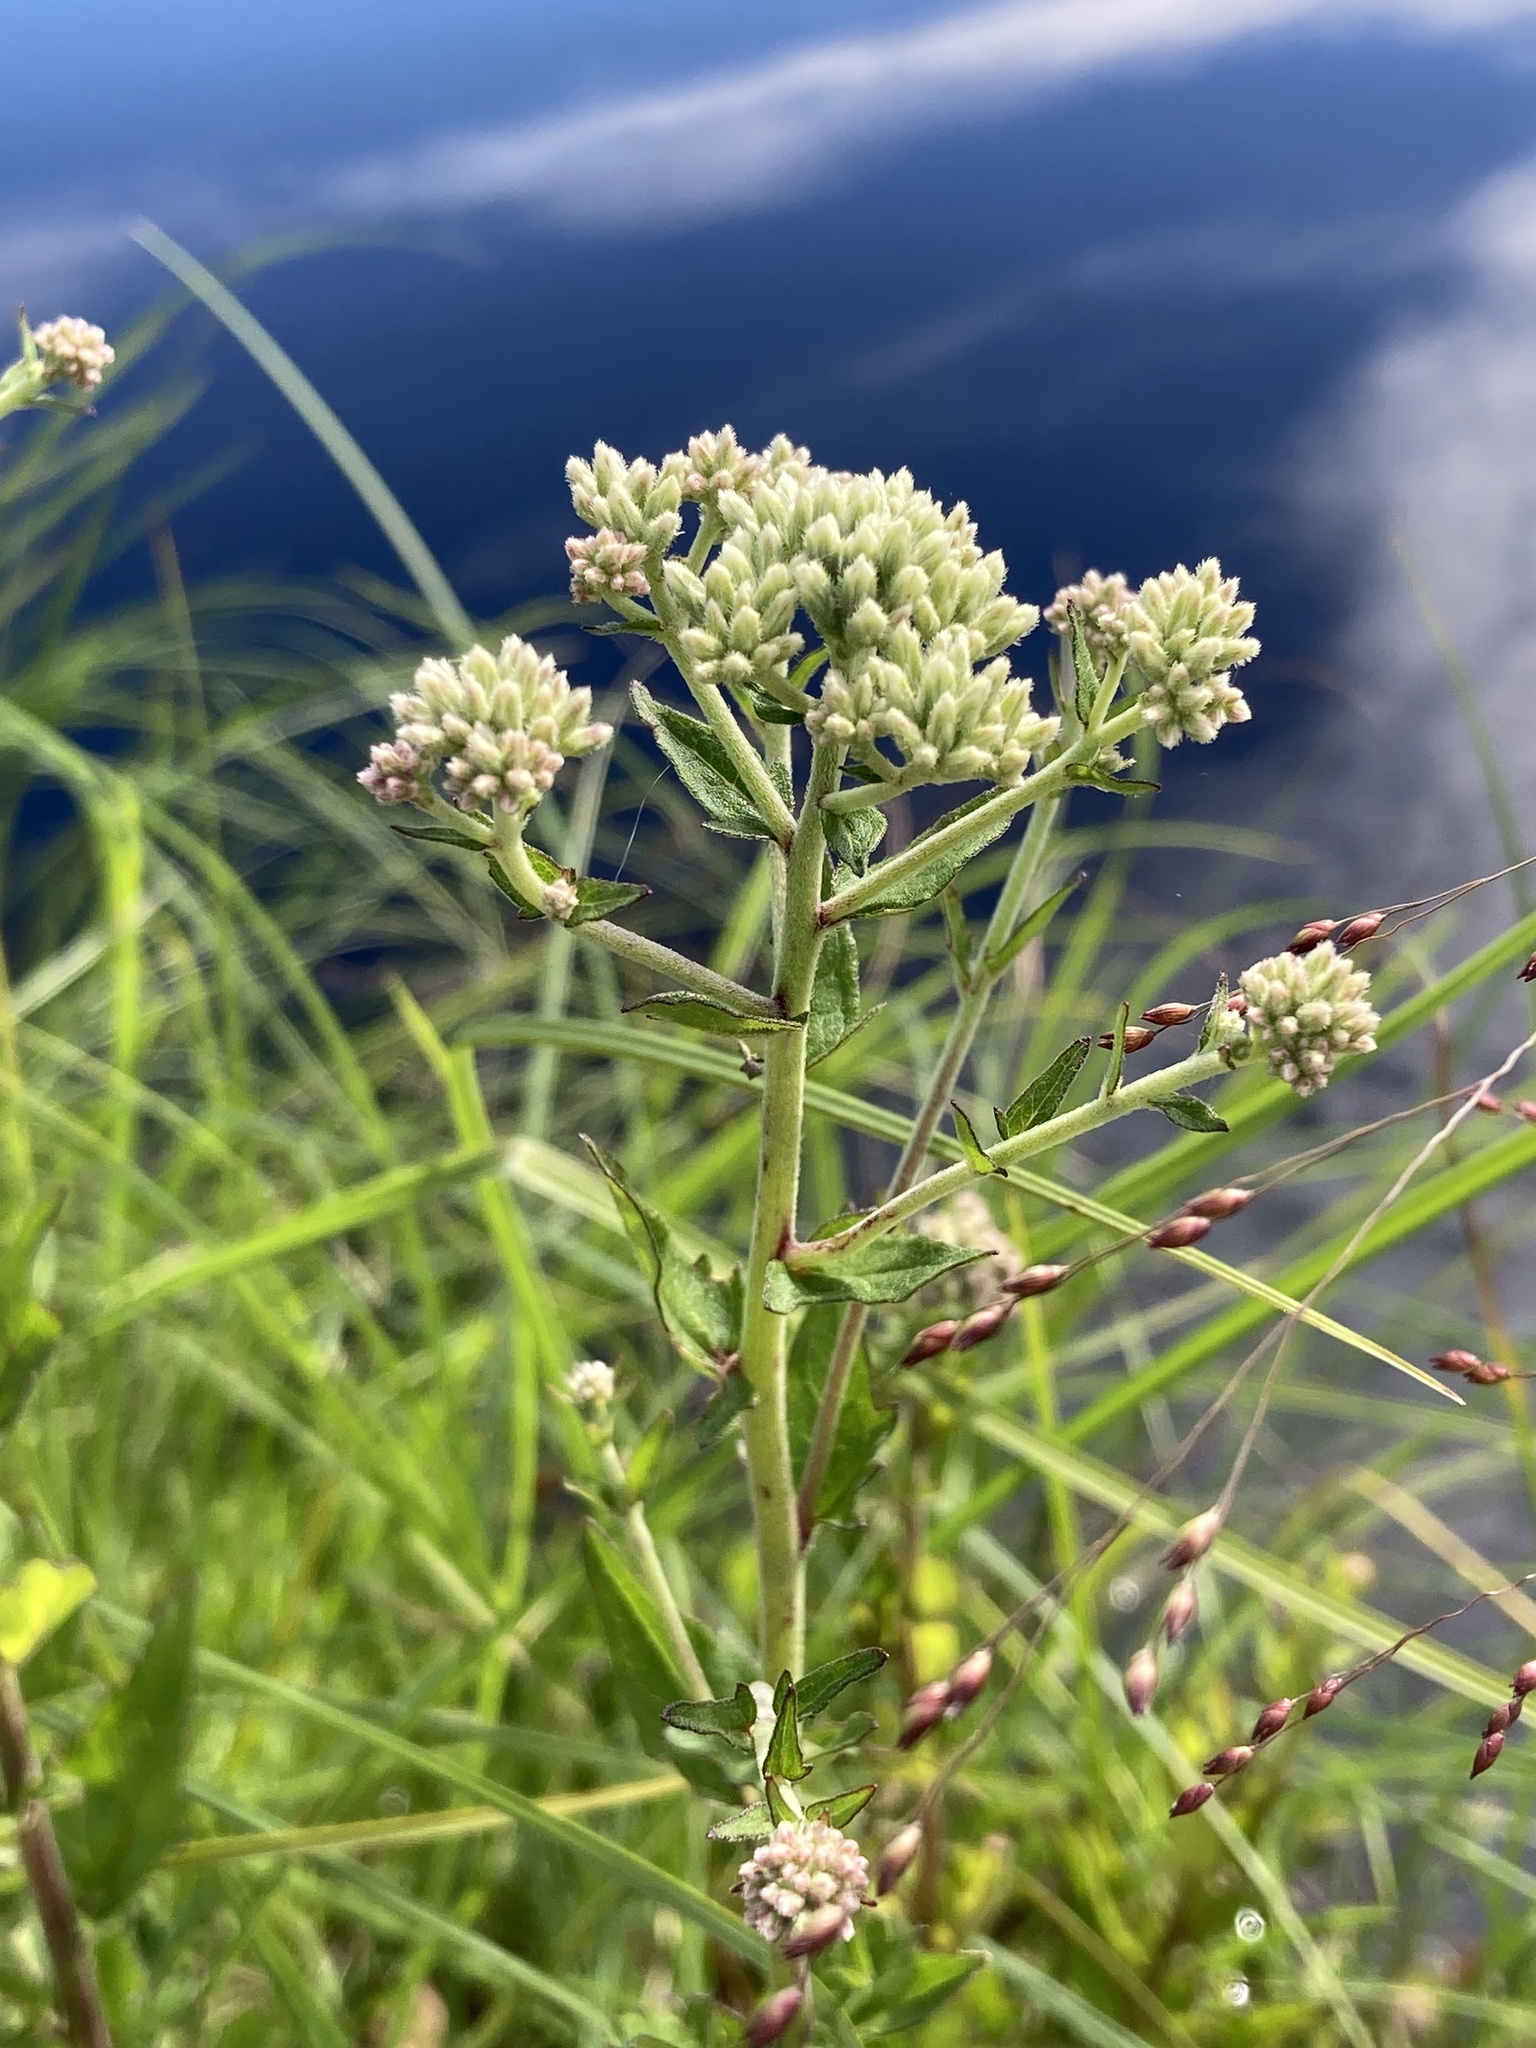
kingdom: Plantae
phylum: Tracheophyta
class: Magnoliopsida
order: Asterales
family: Asteraceae
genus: Eupatorium
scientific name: Eupatorium pilosum
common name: Rough boneset
